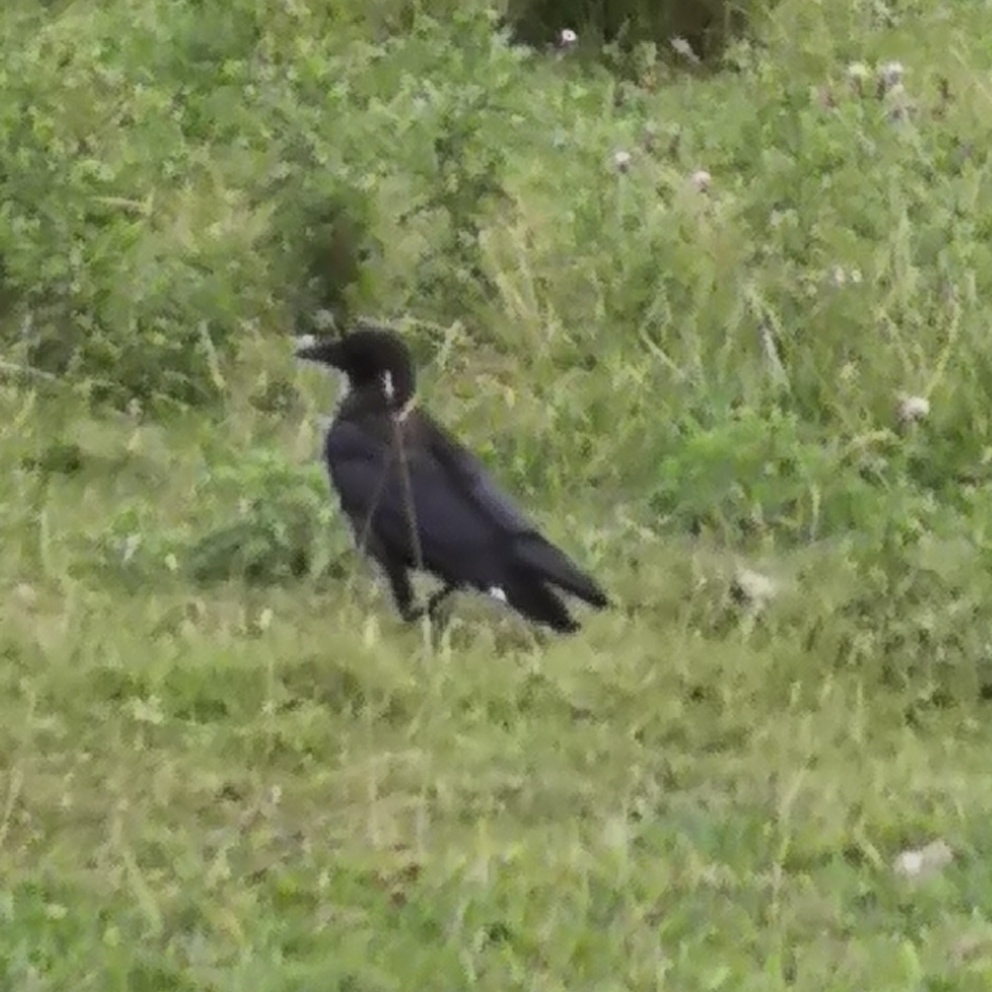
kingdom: Animalia
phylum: Chordata
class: Aves
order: Passeriformes
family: Corvidae
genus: Corvus
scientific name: Corvus corone
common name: Carrion crow
